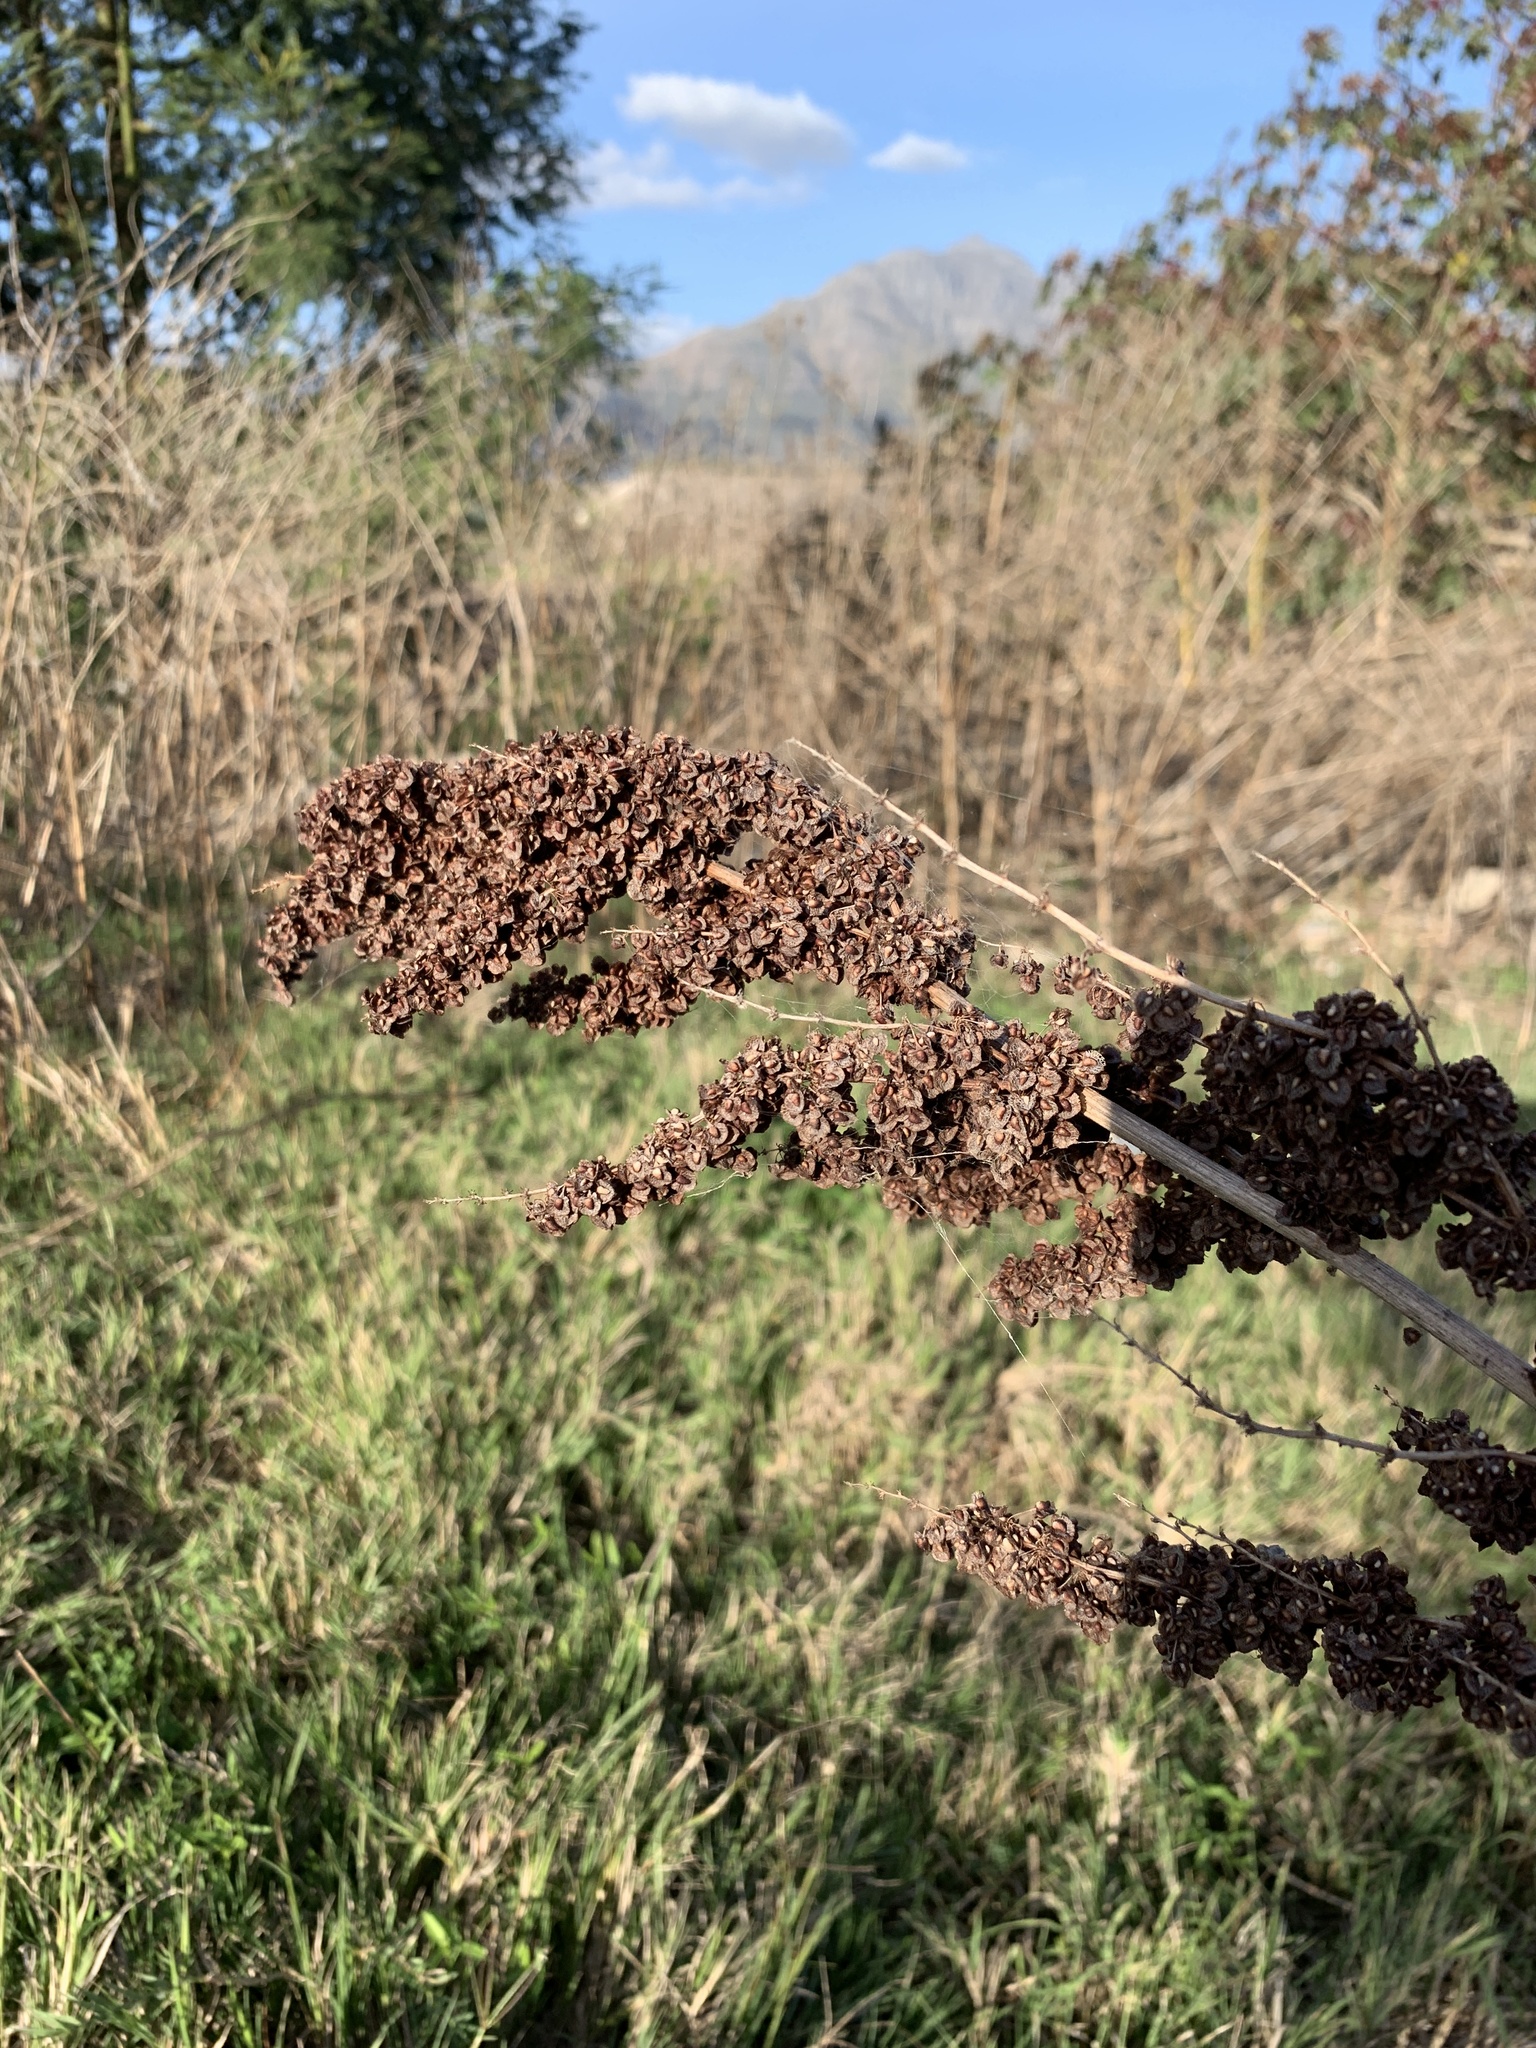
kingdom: Plantae
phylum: Tracheophyta
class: Magnoliopsida
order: Caryophyllales
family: Polygonaceae
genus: Rumex
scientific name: Rumex crispus
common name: Curled dock
